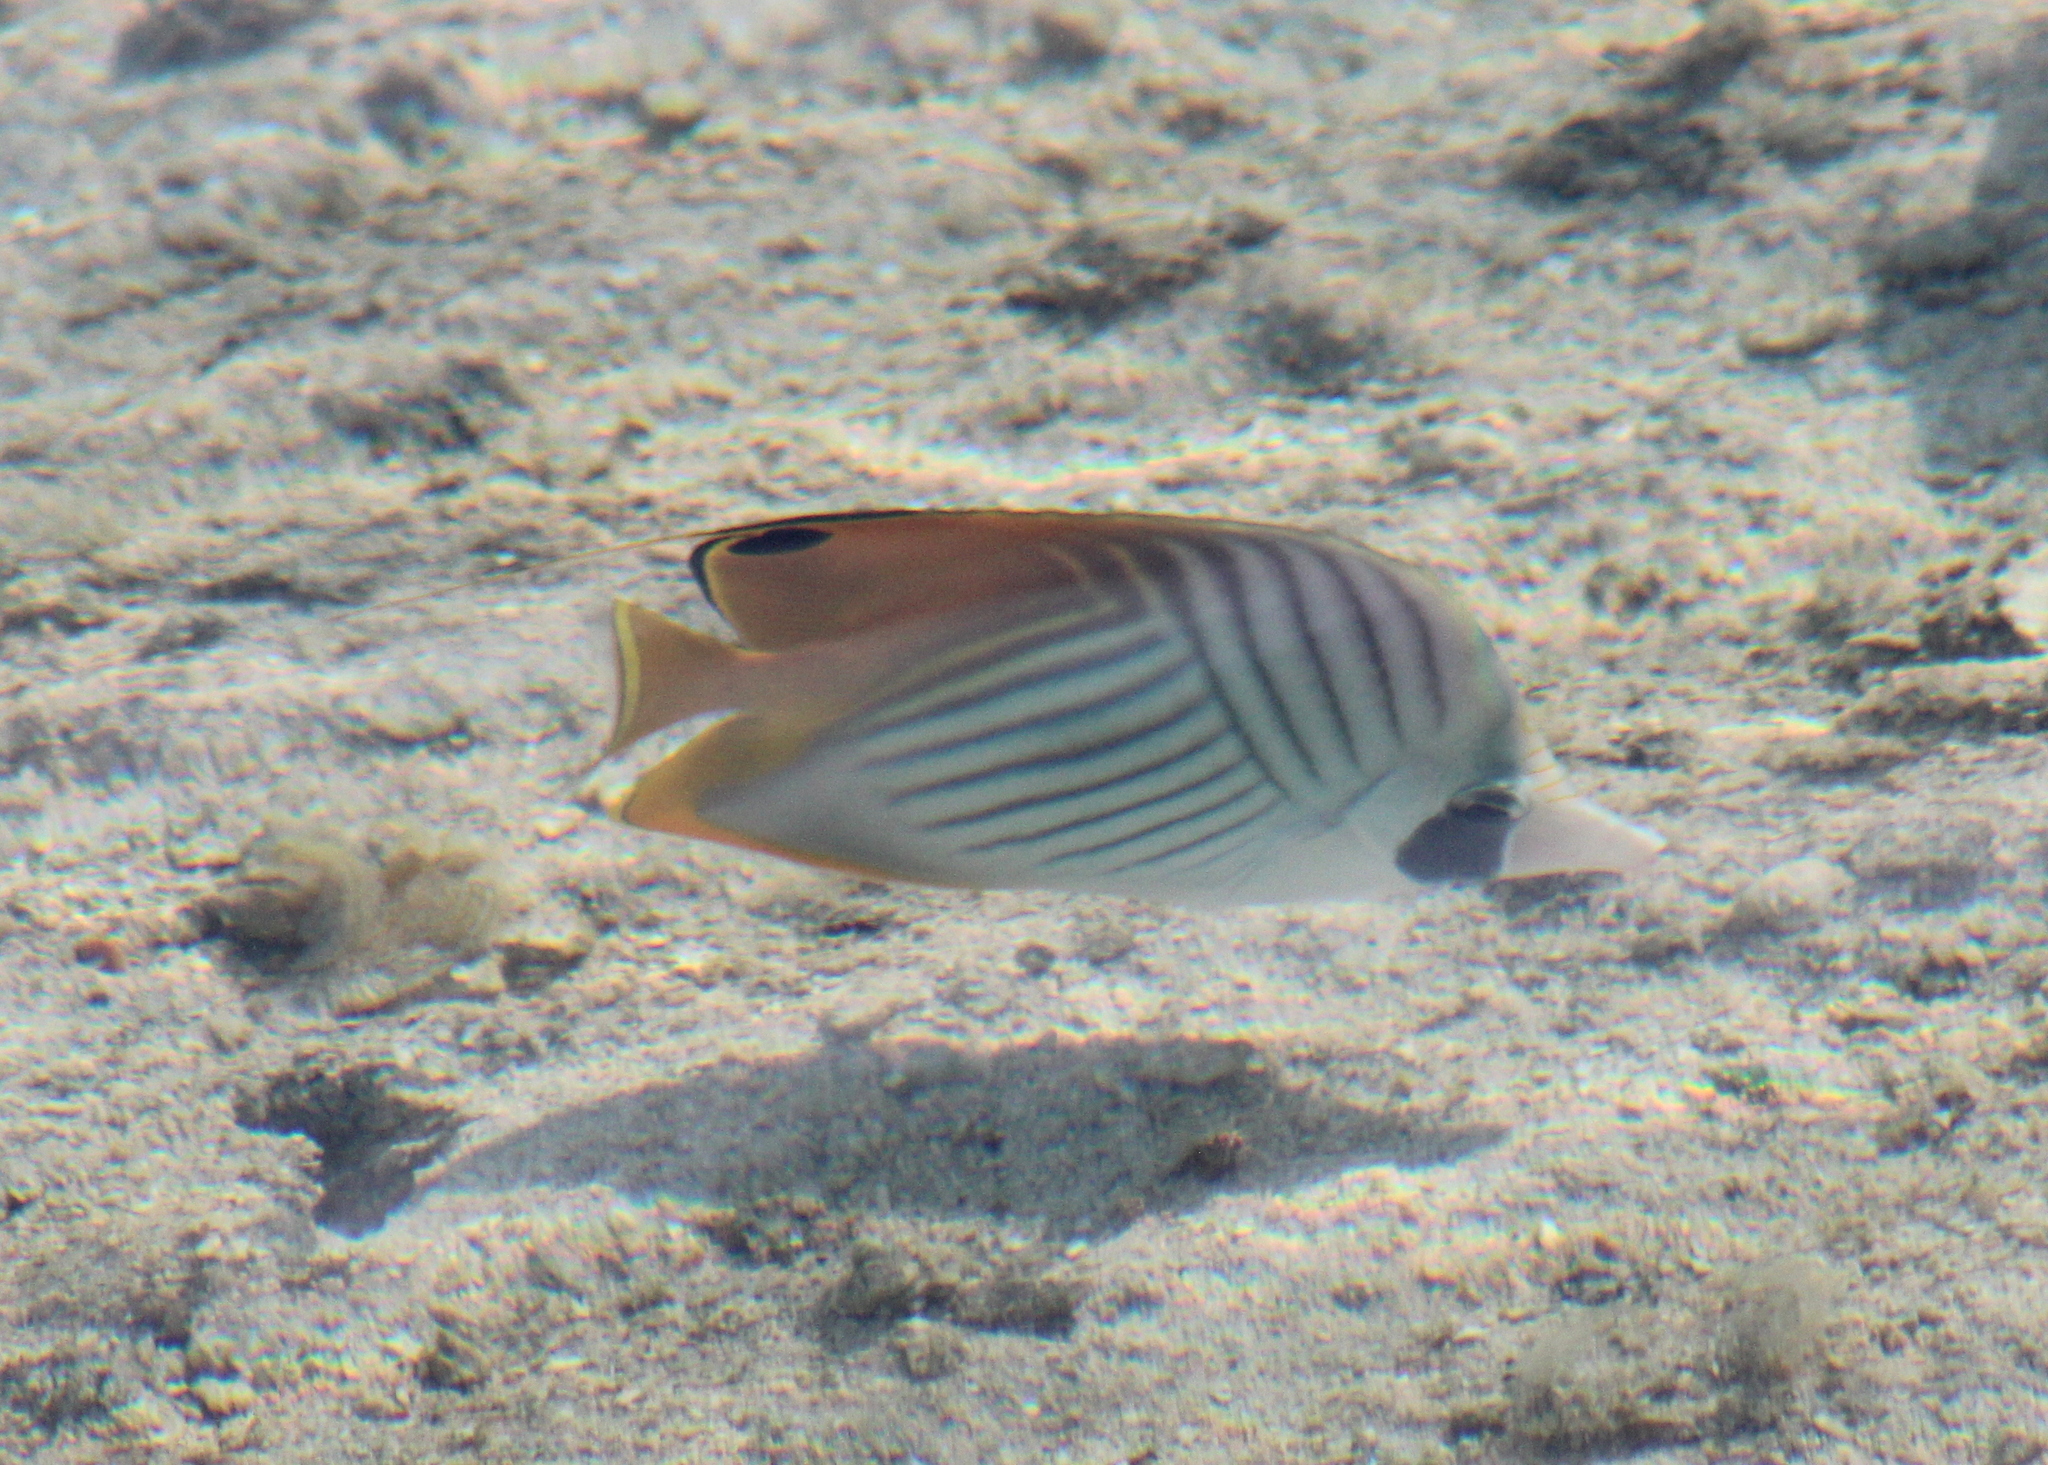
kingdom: Animalia
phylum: Chordata
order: Perciformes
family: Chaetodontidae
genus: Chaetodon
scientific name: Chaetodon auriga
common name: Threadfin butterflyfish
